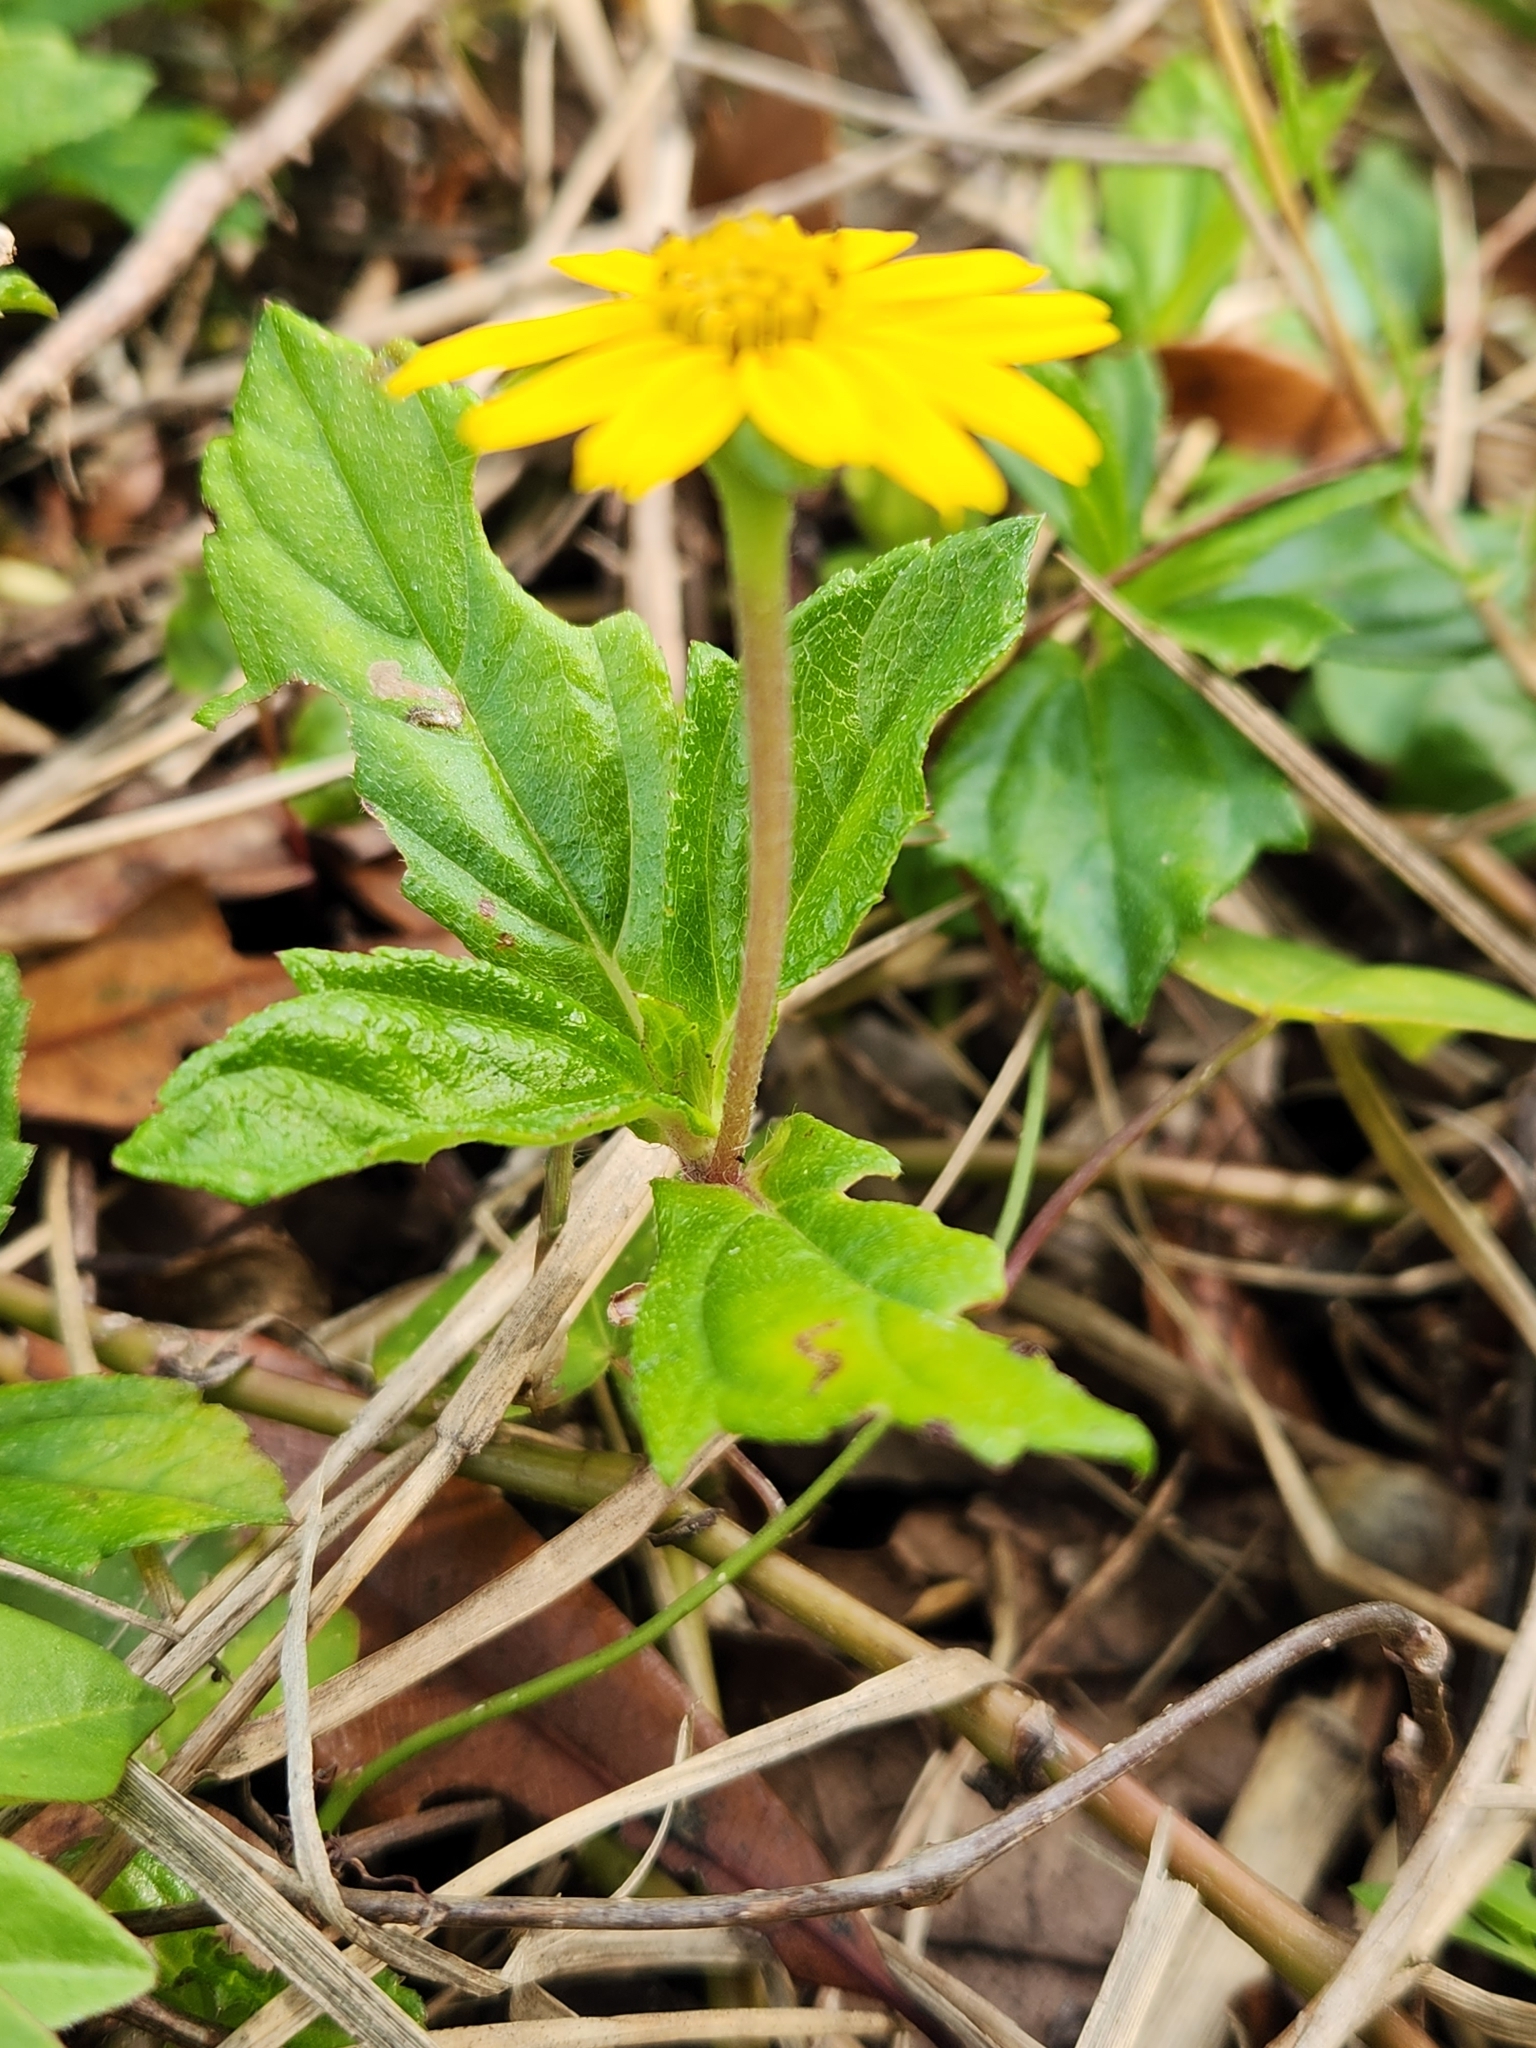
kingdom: Plantae
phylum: Tracheophyta
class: Magnoliopsida
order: Asterales
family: Asteraceae
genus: Sphagneticola
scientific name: Sphagneticola trilobata
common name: Bay biscayne creeping-oxeye
